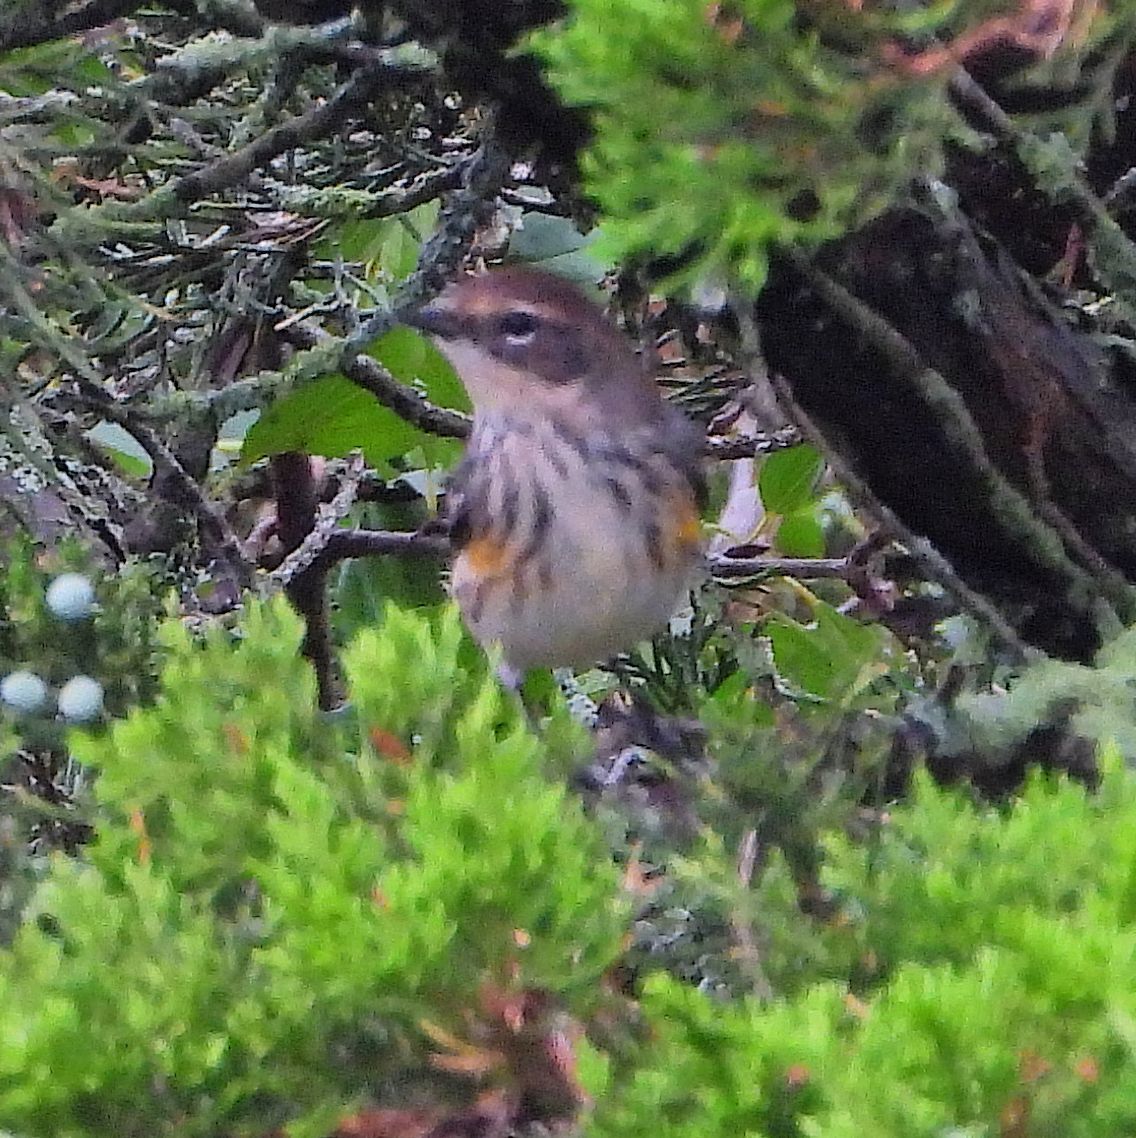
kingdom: Animalia
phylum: Chordata
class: Aves
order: Passeriformes
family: Parulidae
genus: Setophaga
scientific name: Setophaga coronata
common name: Myrtle warbler
